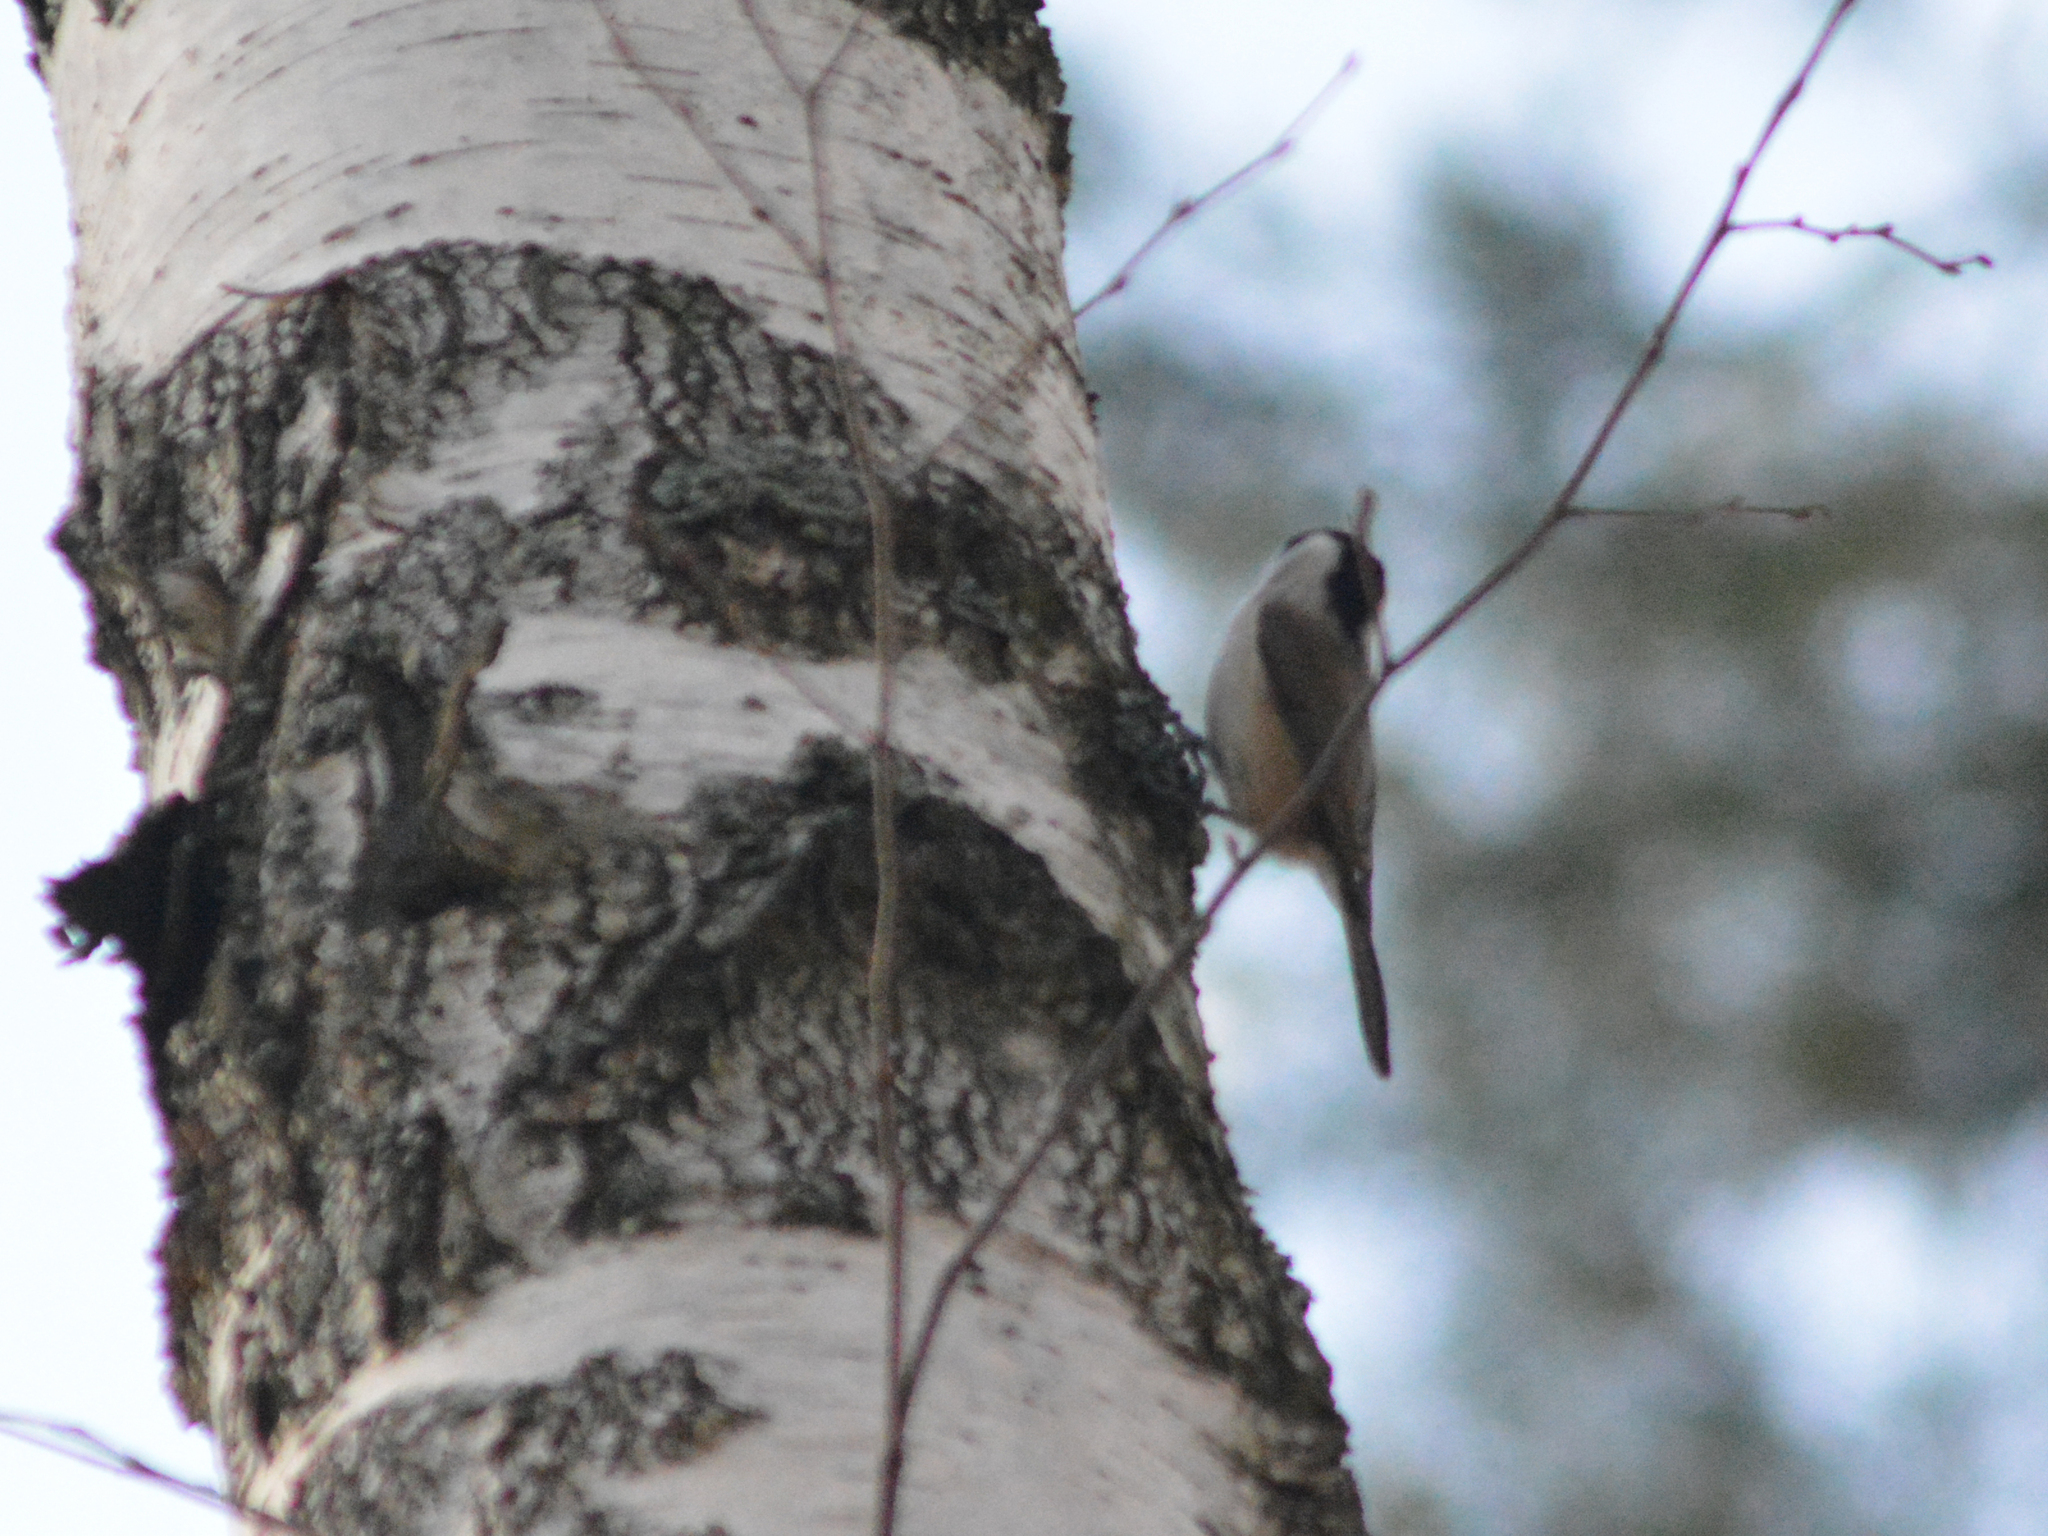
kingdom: Animalia
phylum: Chordata
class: Aves
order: Passeriformes
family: Paridae
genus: Poecile
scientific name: Poecile palustris
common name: Marsh tit
